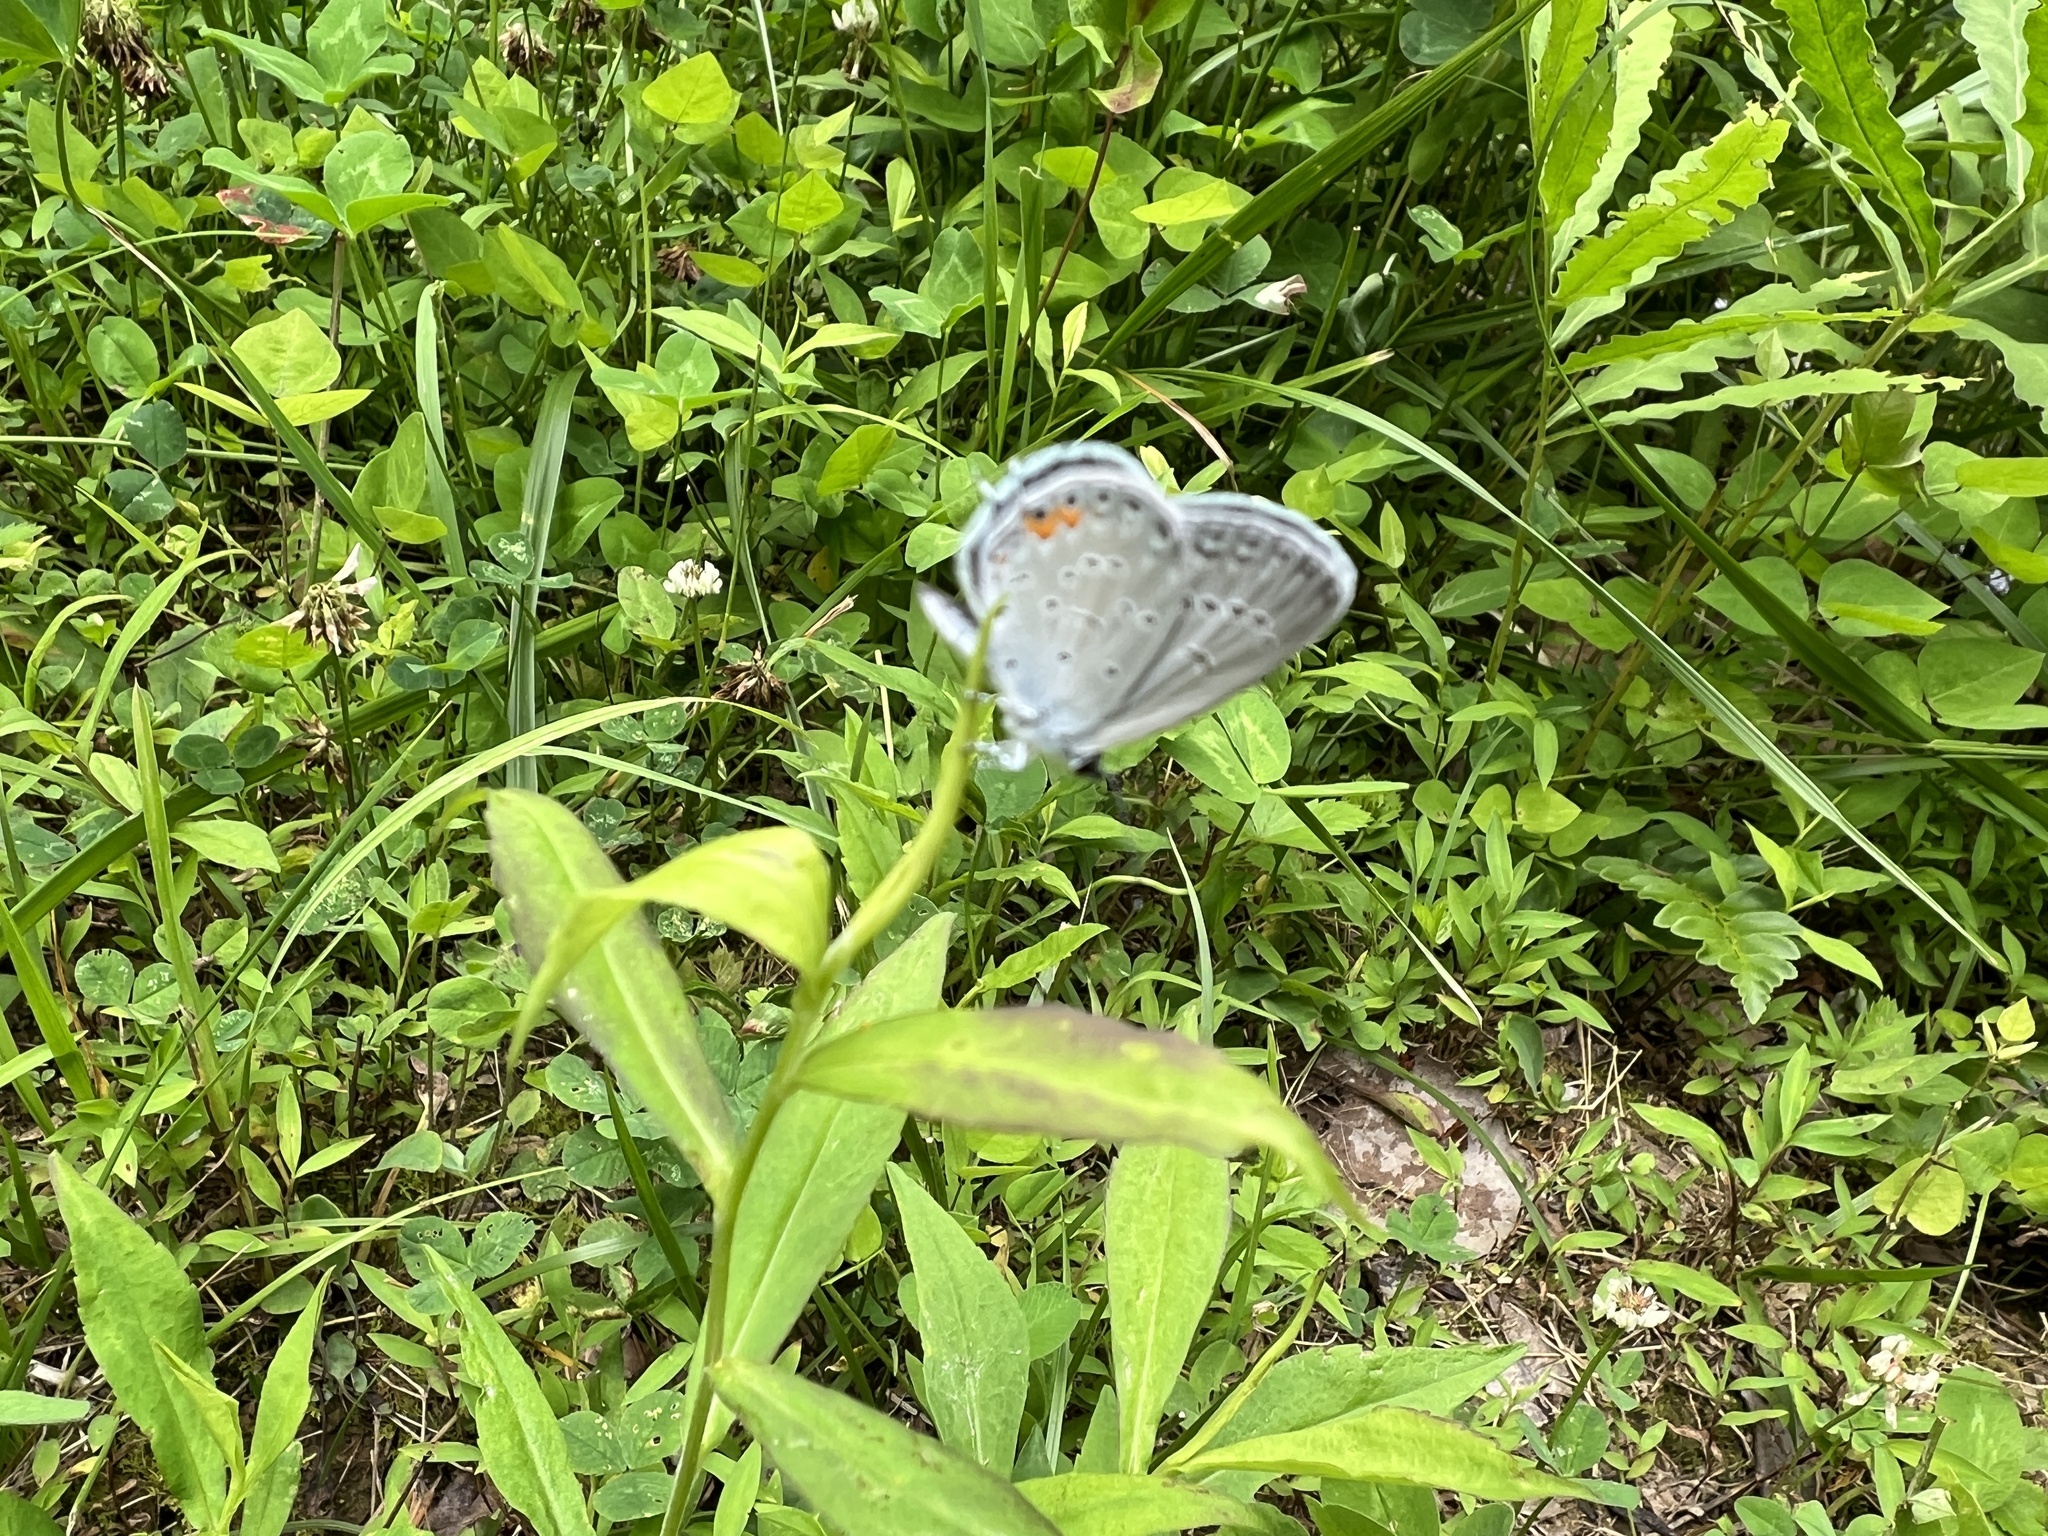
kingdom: Animalia
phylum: Arthropoda
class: Insecta
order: Lepidoptera
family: Lycaenidae
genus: Elkalyce
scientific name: Elkalyce comyntas
